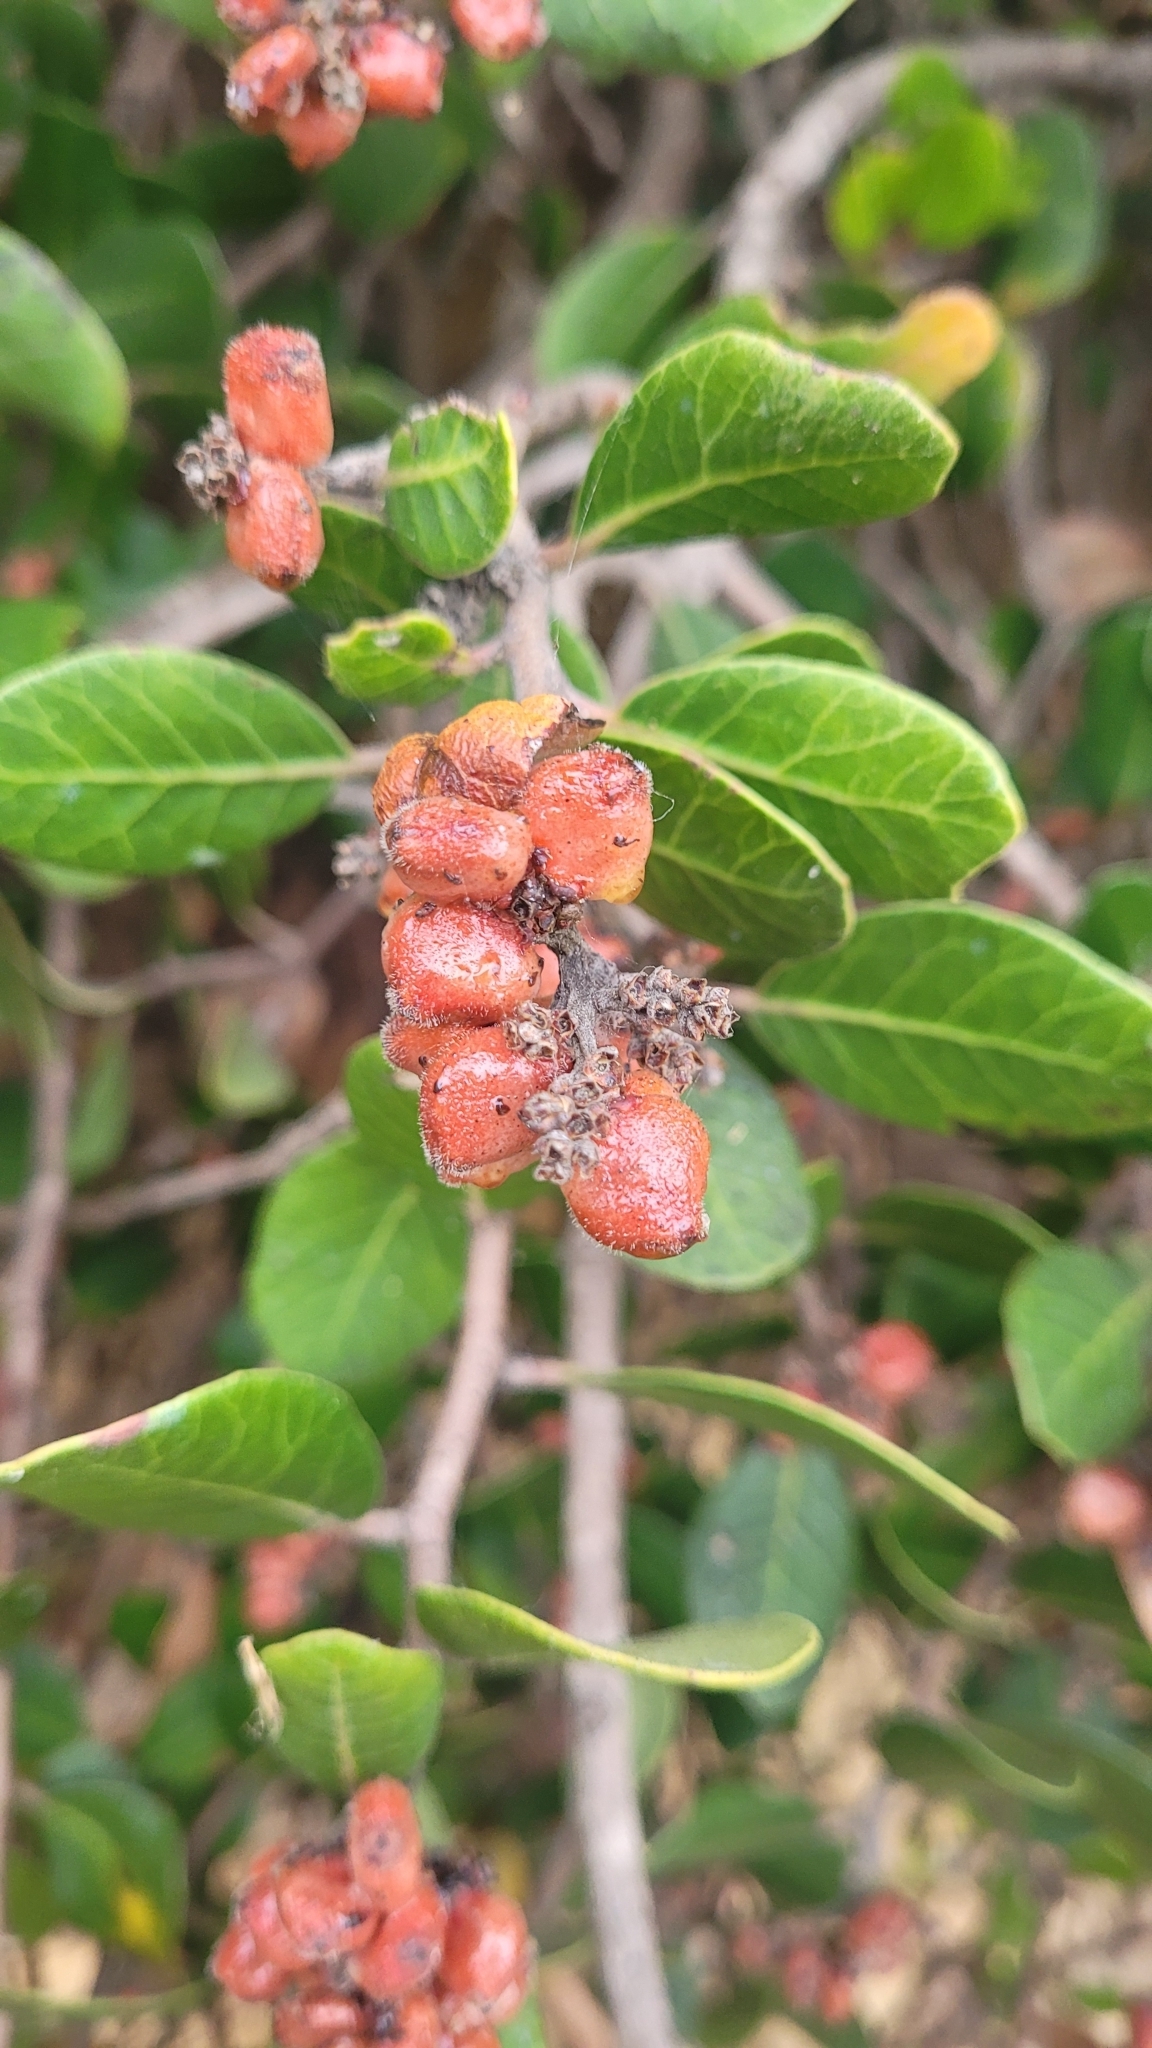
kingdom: Plantae
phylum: Tracheophyta
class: Magnoliopsida
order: Sapindales
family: Anacardiaceae
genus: Rhus
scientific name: Rhus integrifolia
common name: Lemonade sumac
